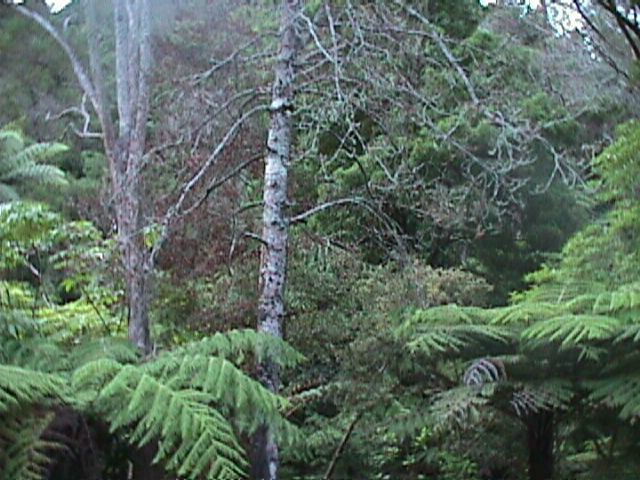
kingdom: Plantae
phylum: Tracheophyta
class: Pinopsida
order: Pinales
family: Phyllocladaceae
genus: Phyllocladus
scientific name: Phyllocladus trichomanoides
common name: Celery pine
